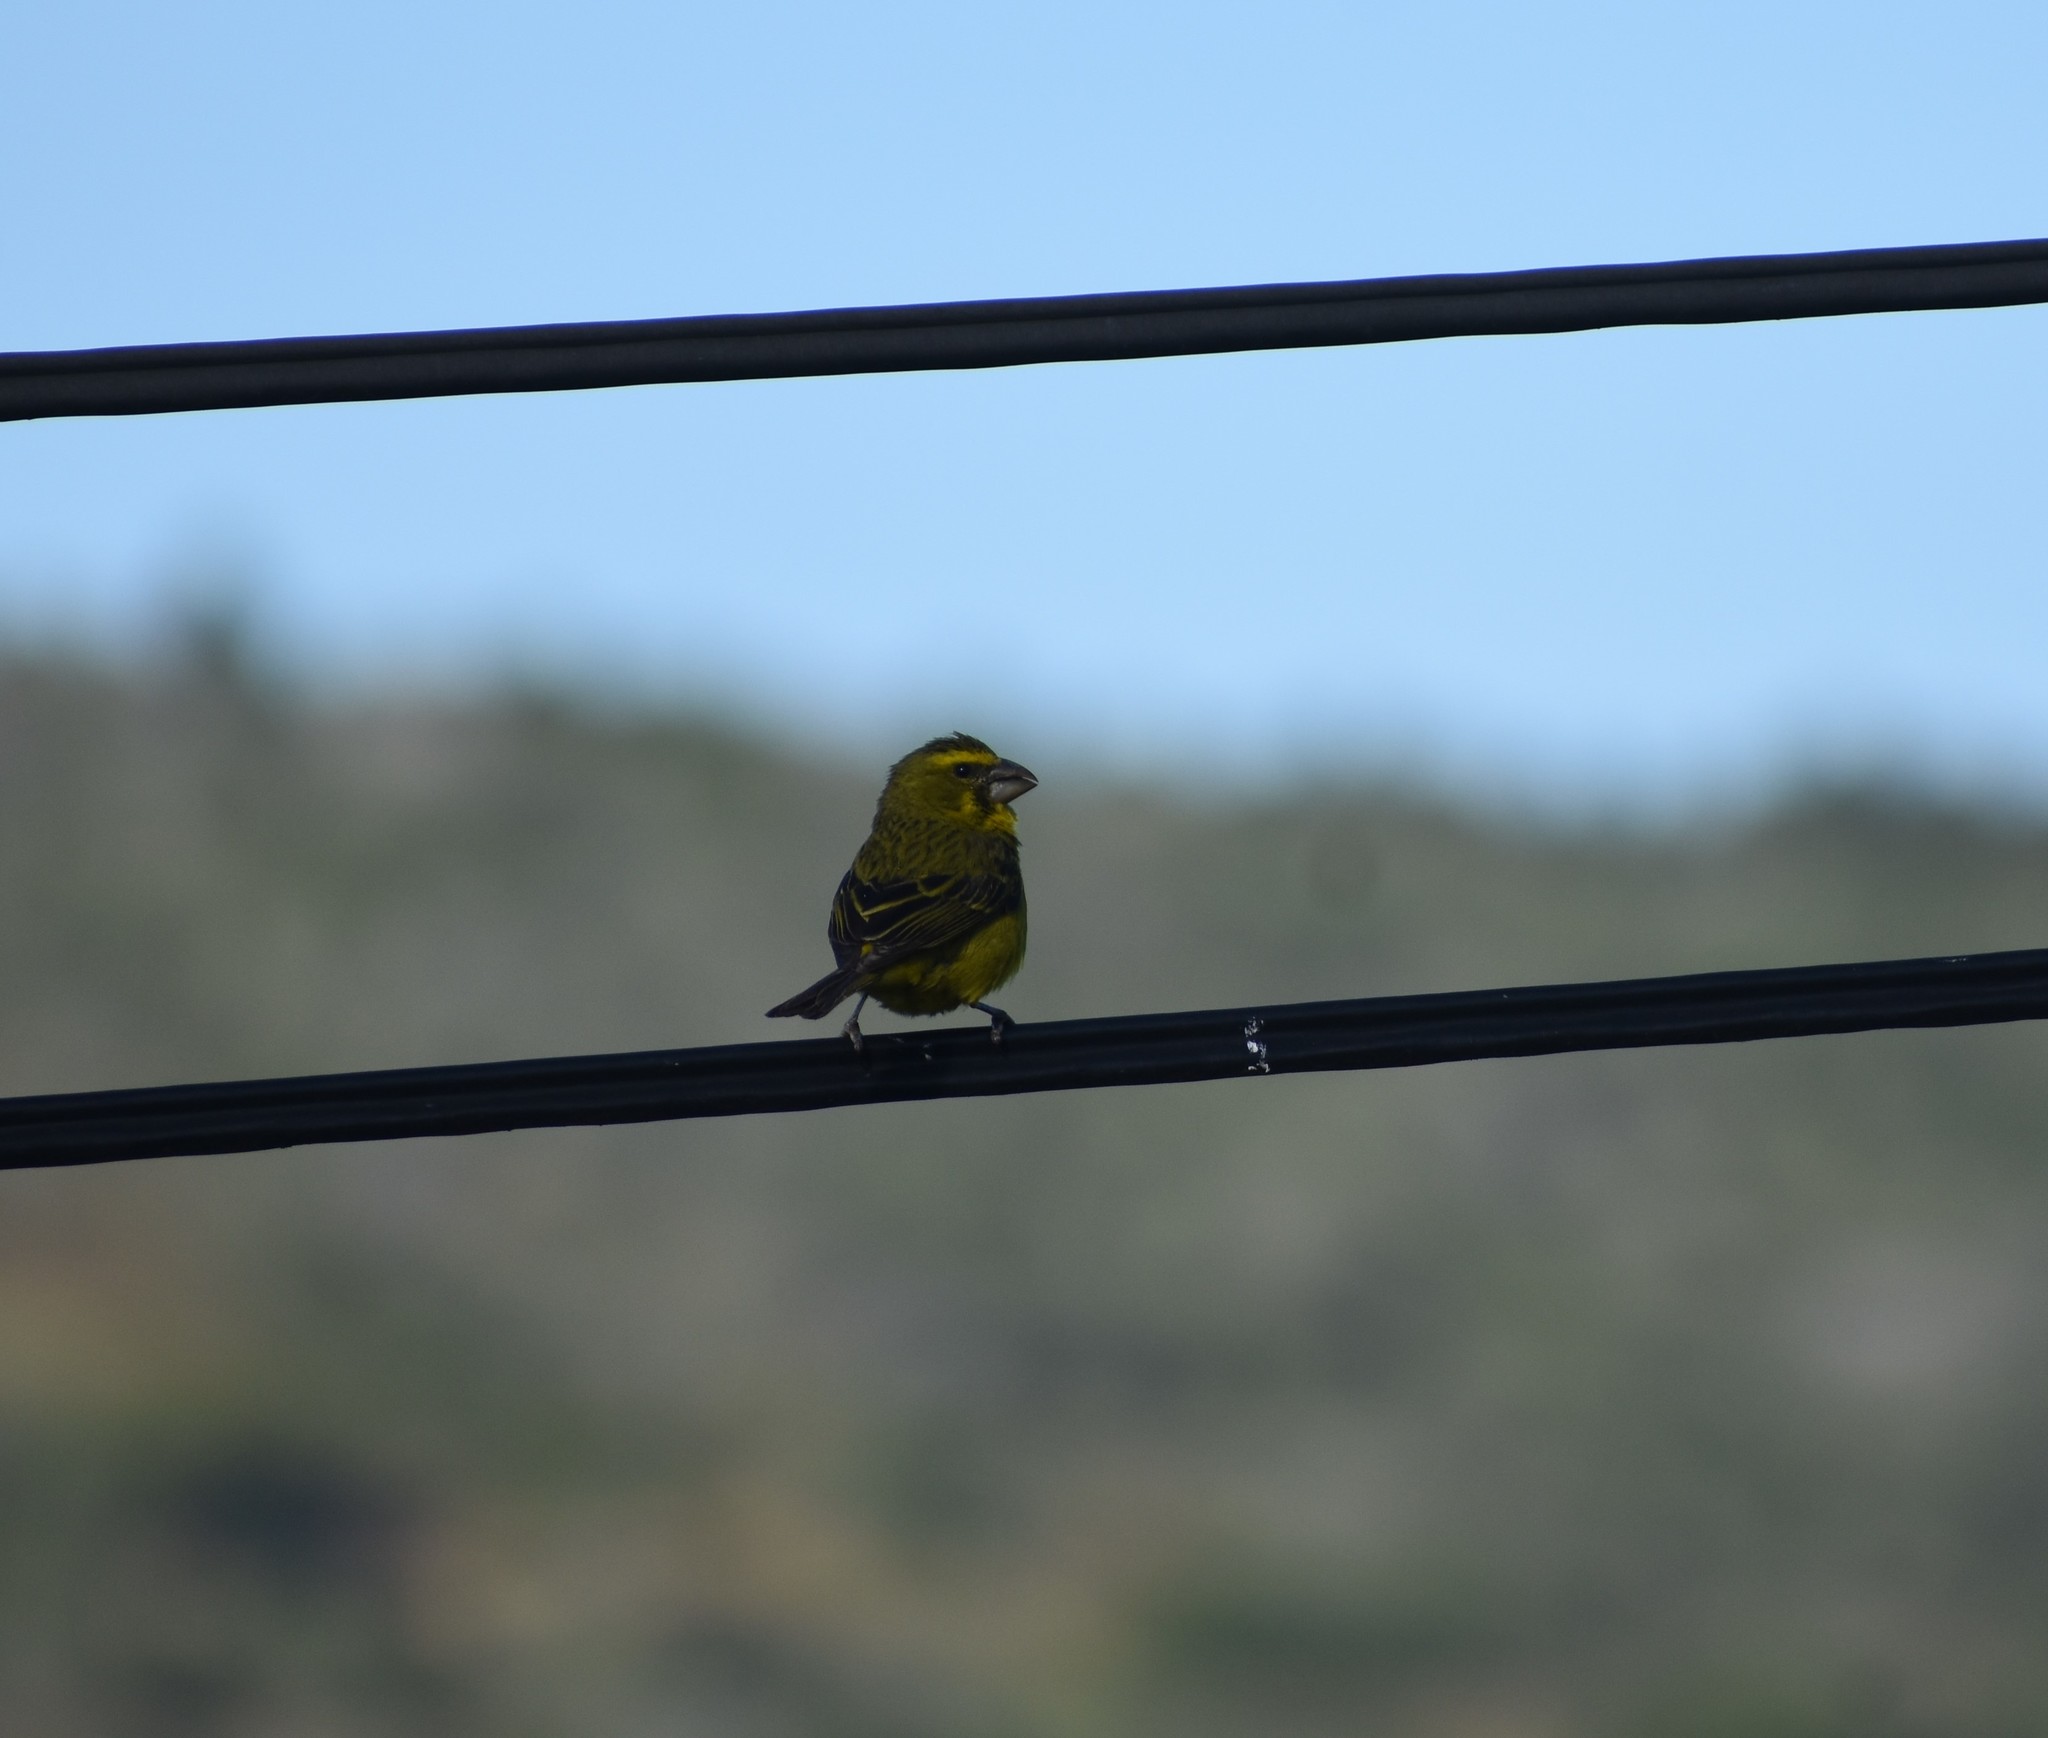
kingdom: Animalia
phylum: Chordata
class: Aves
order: Passeriformes
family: Fringillidae
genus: Crithagra
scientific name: Crithagra sulphurata
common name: Brimstone canary
